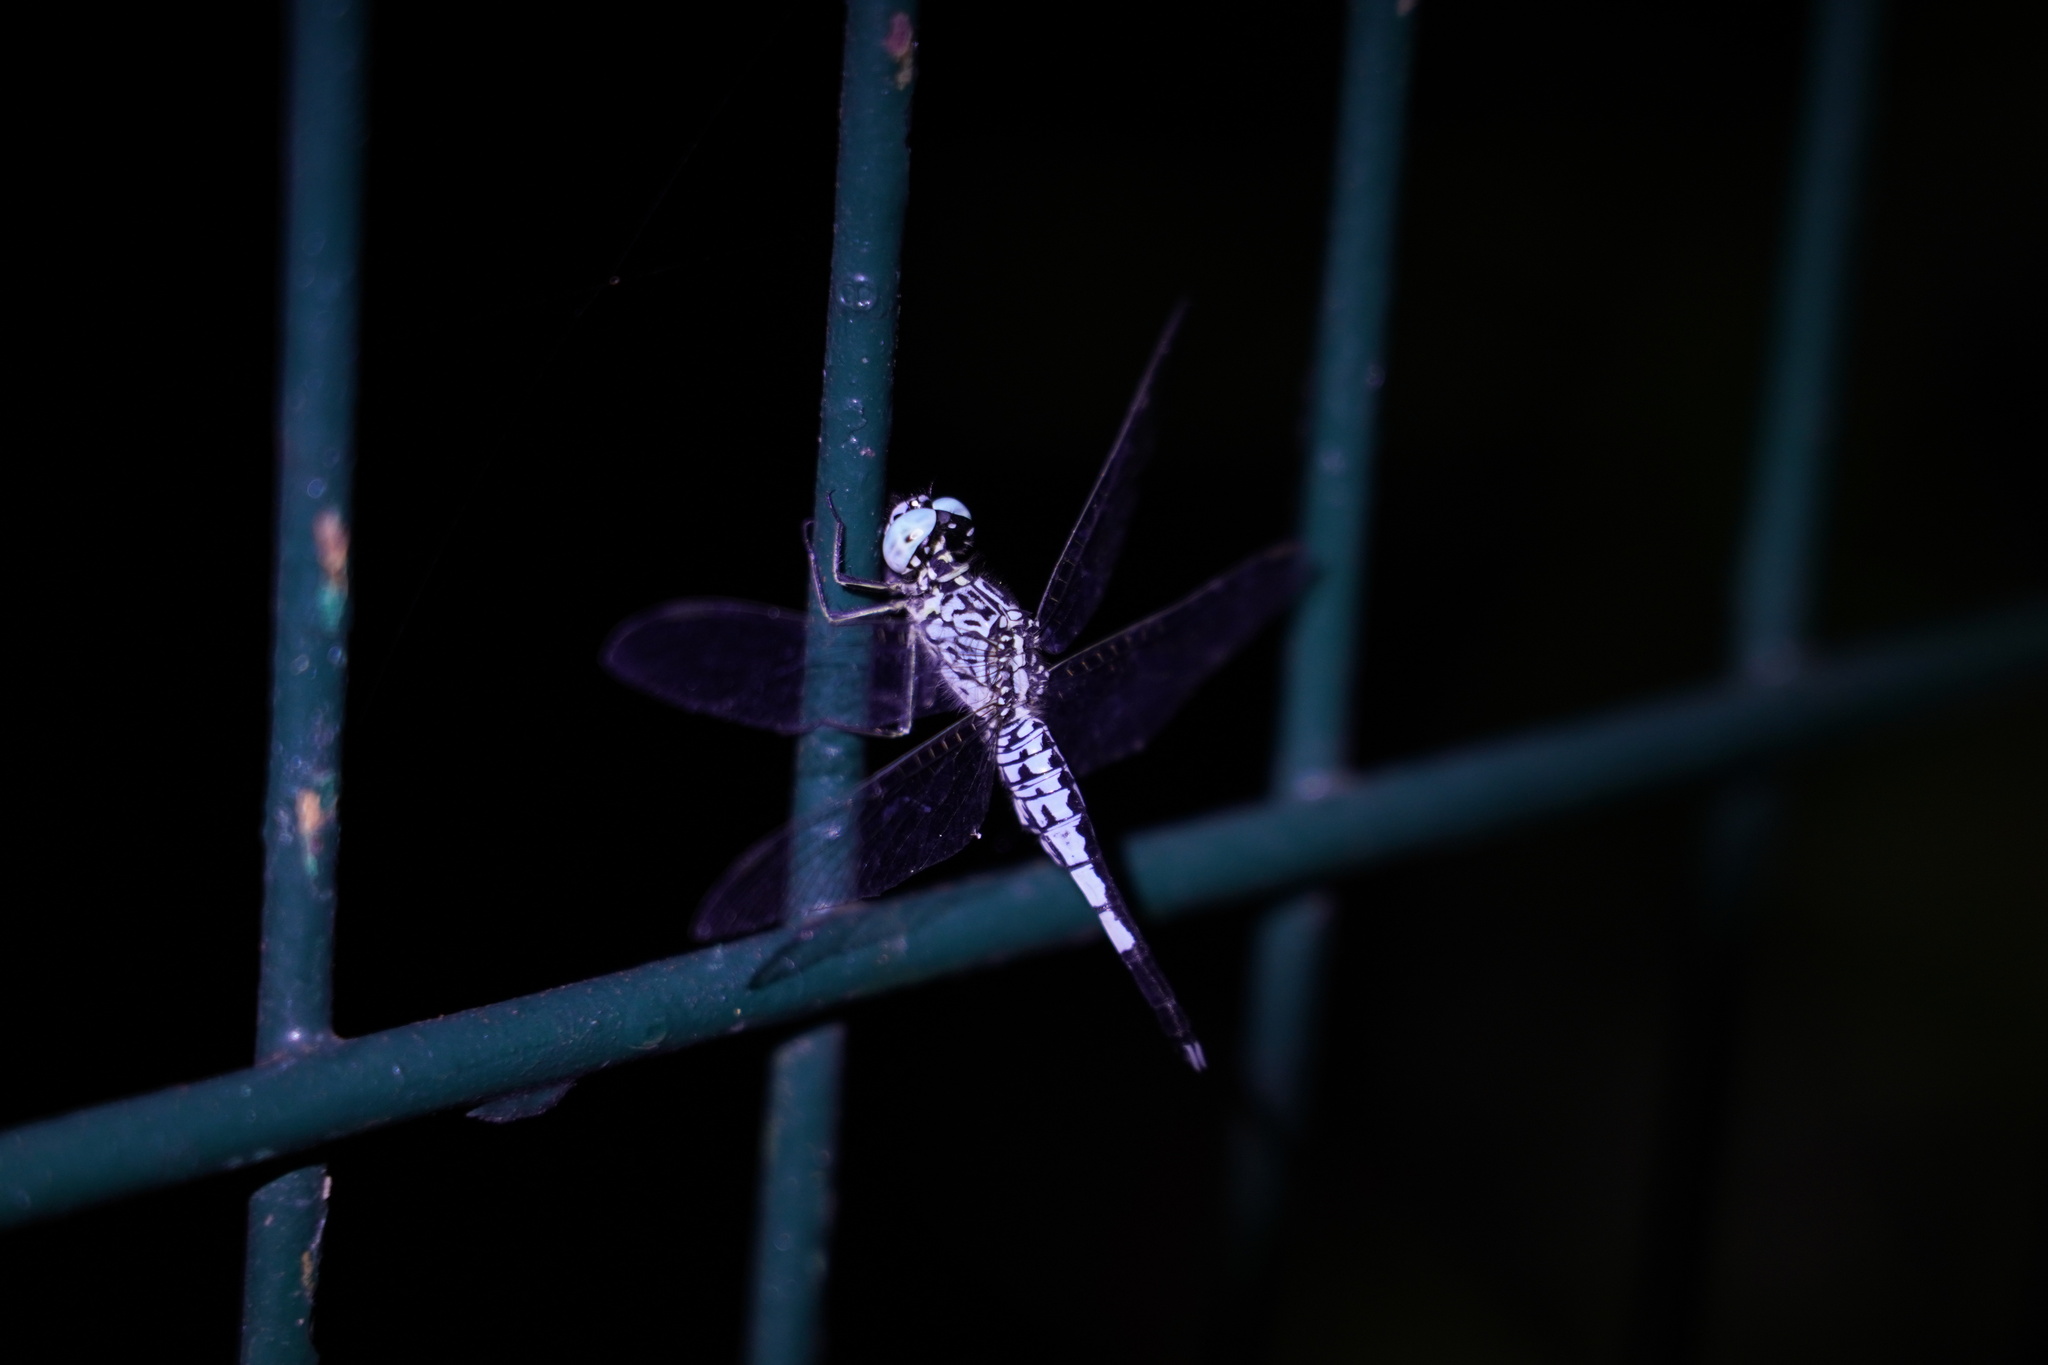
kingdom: Animalia
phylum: Arthropoda
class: Insecta
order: Odonata
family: Libellulidae
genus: Acisoma
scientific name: Acisoma panorpoides
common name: Asian pintail
